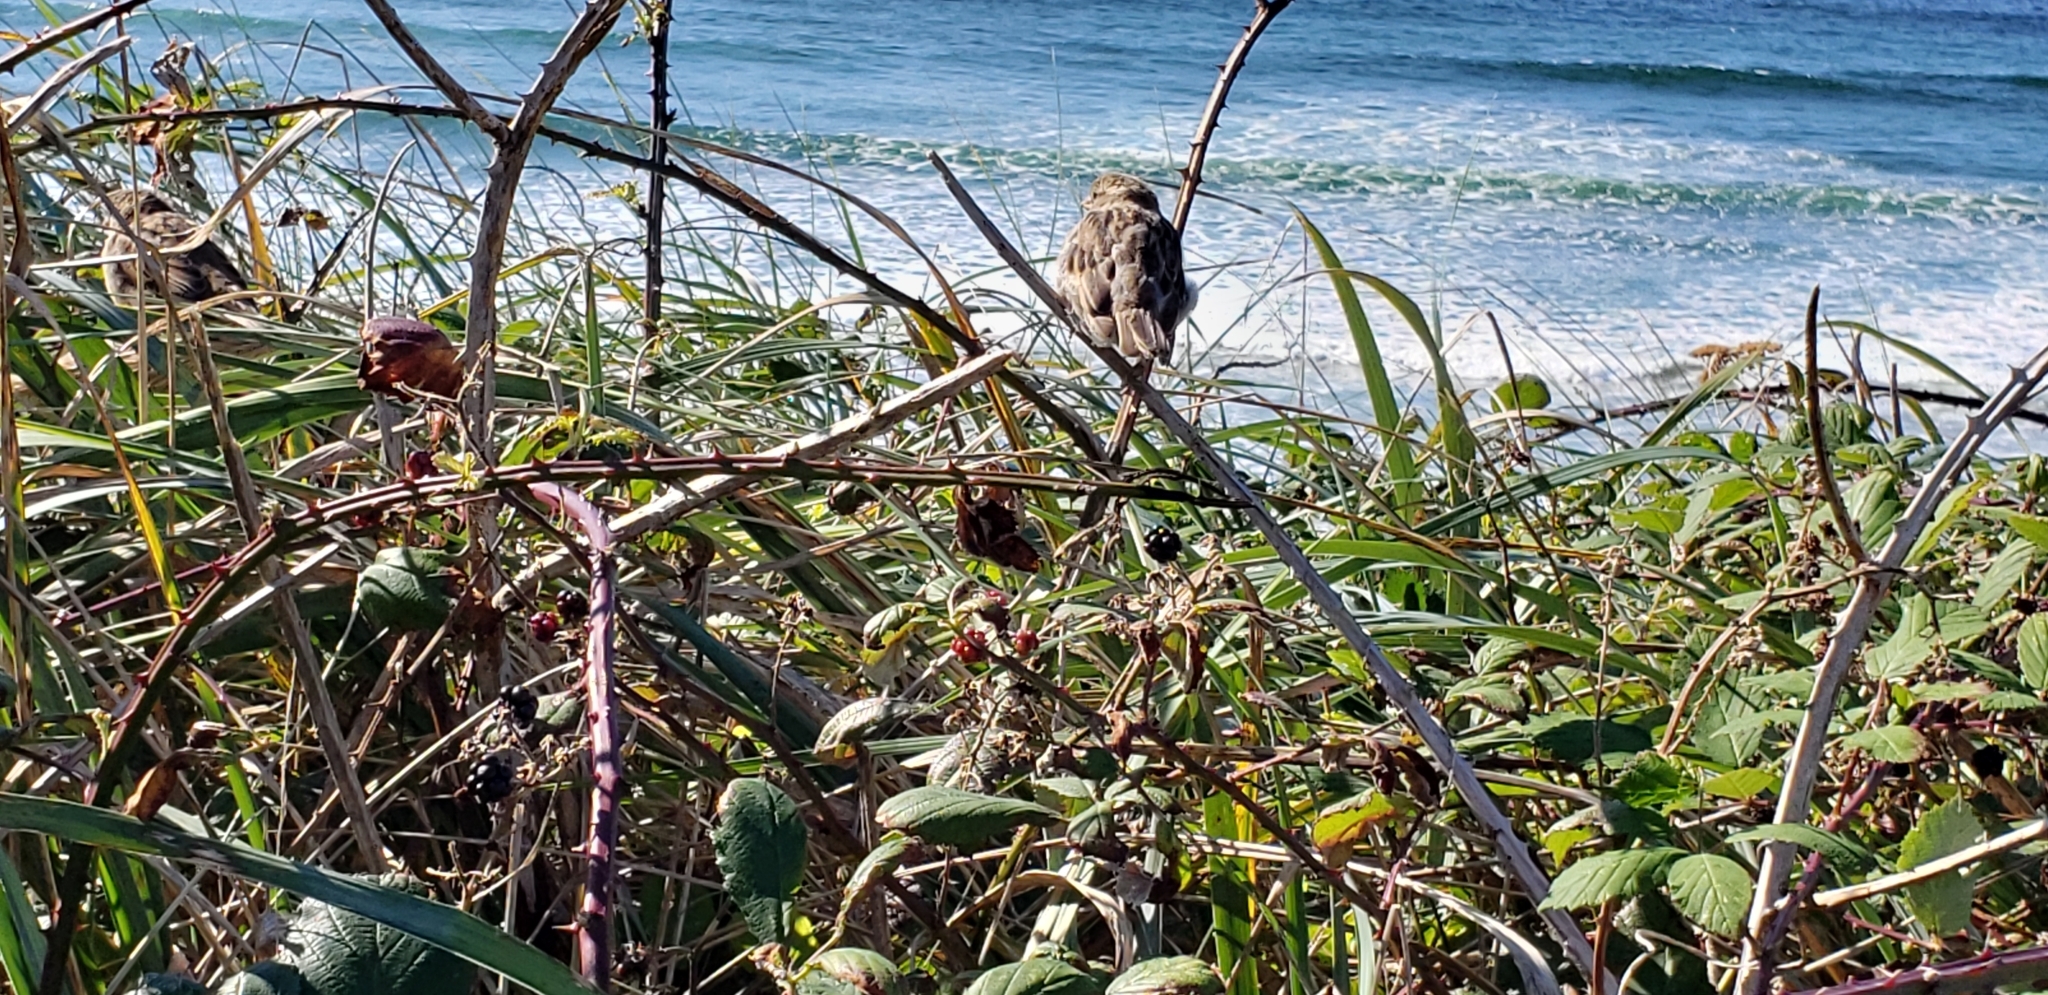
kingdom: Animalia
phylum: Chordata
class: Aves
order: Passeriformes
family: Passeridae
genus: Passer
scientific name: Passer domesticus
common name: House sparrow
